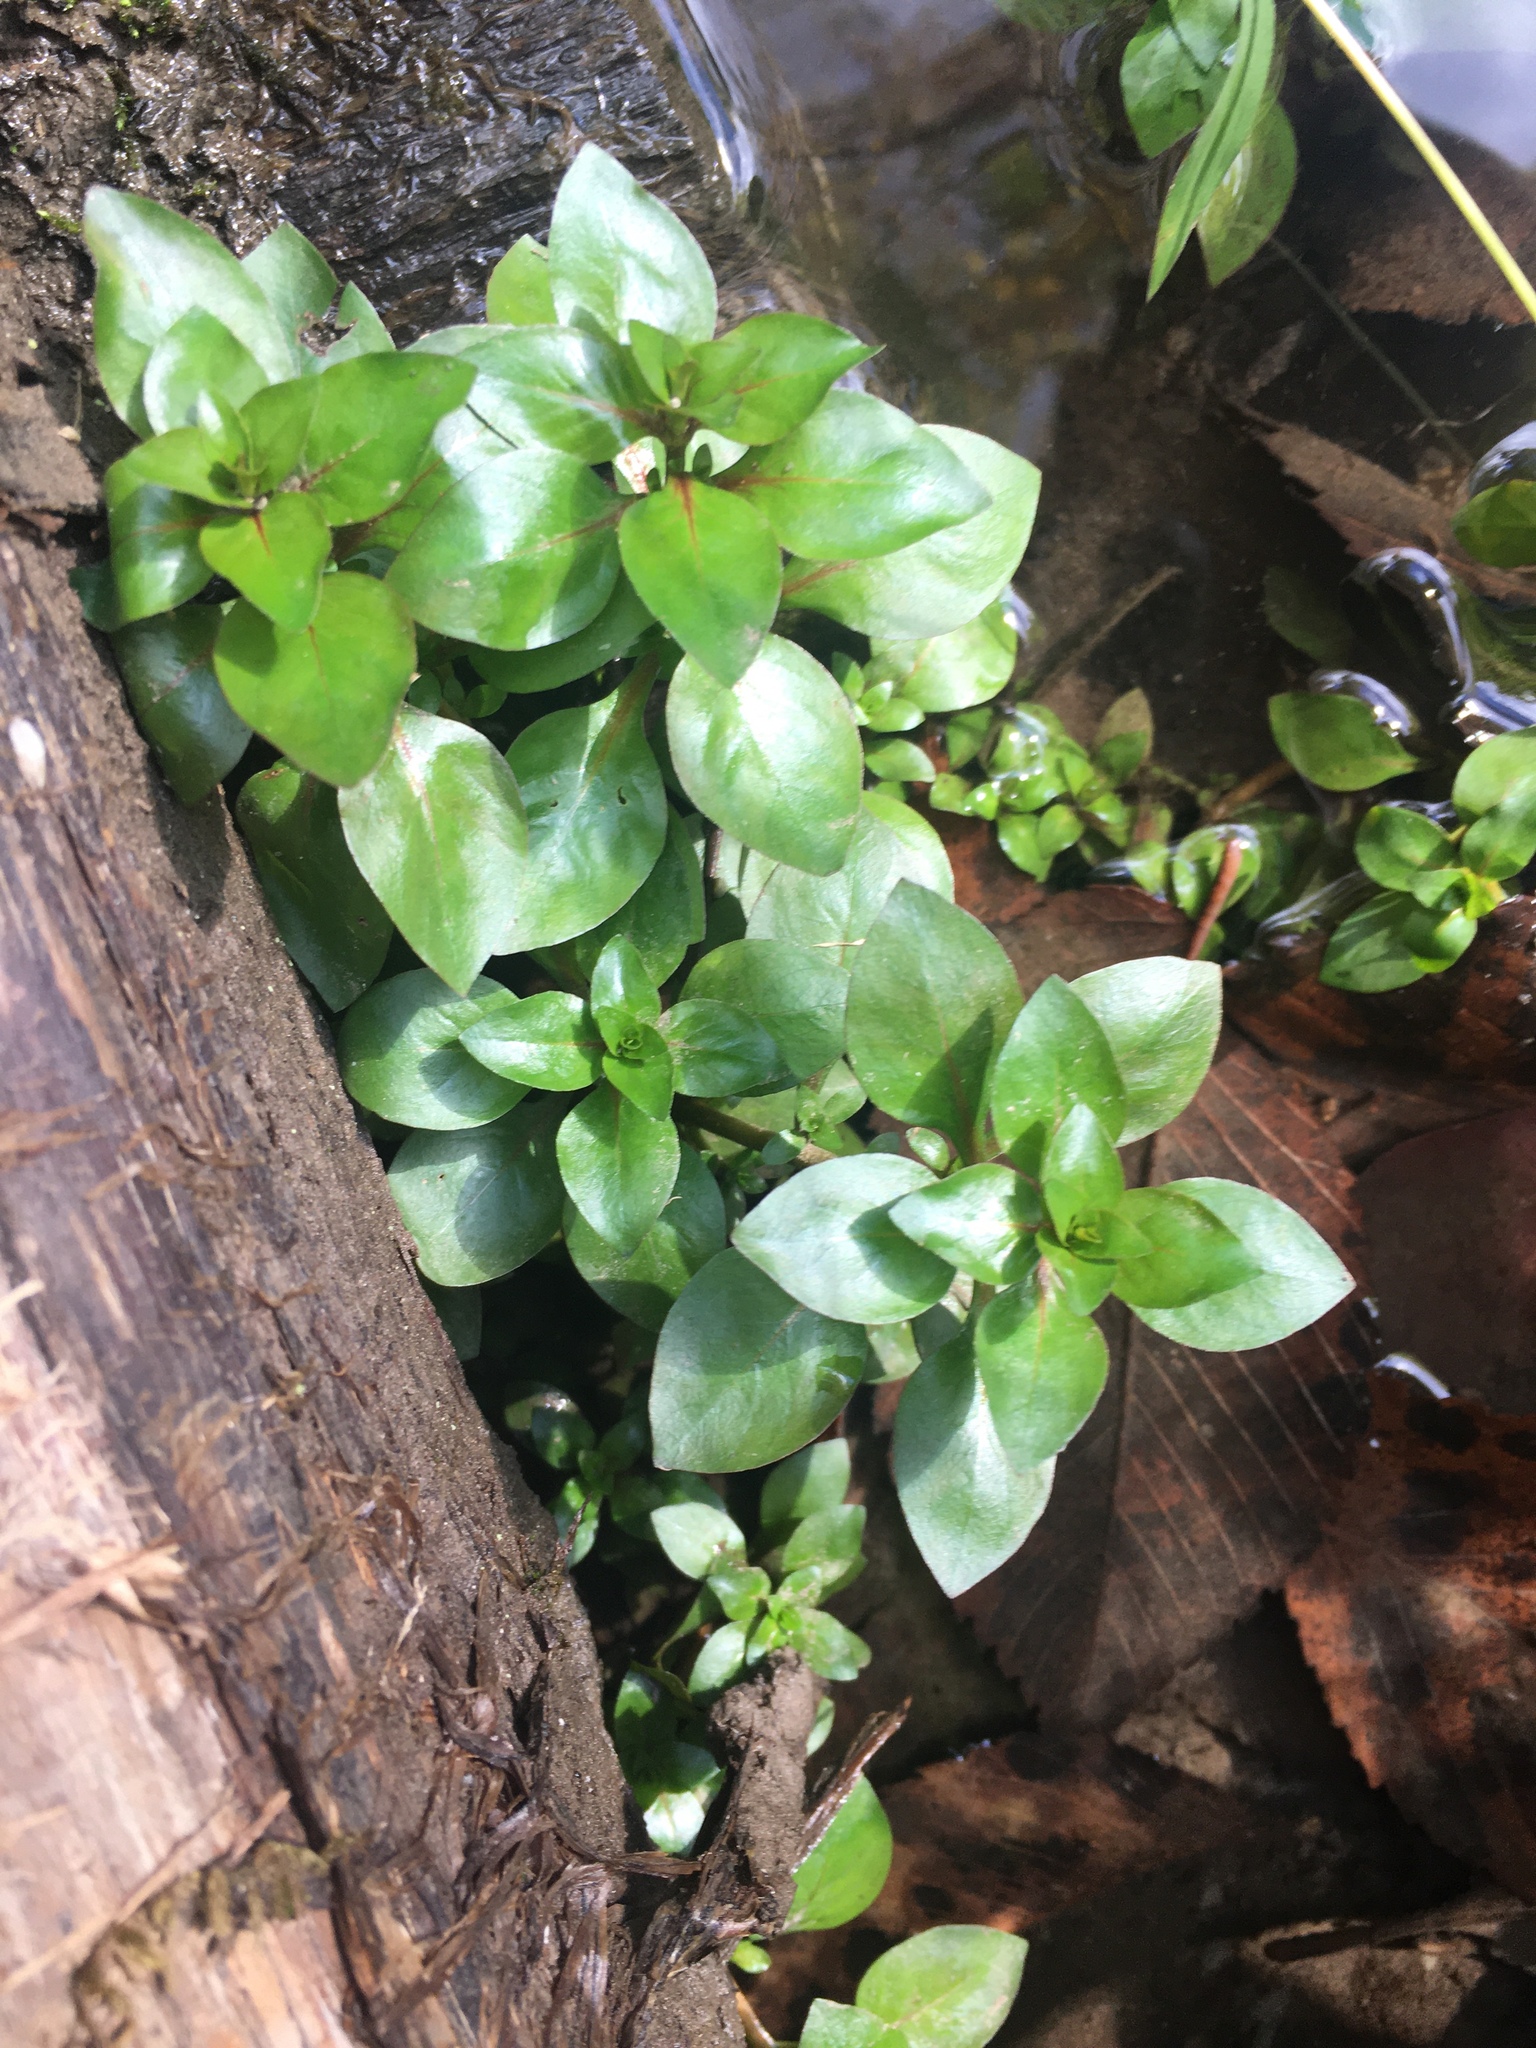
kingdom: Plantae
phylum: Tracheophyta
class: Magnoliopsida
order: Myrtales
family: Onagraceae
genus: Ludwigia
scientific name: Ludwigia palustris
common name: Hampshire-purslane
